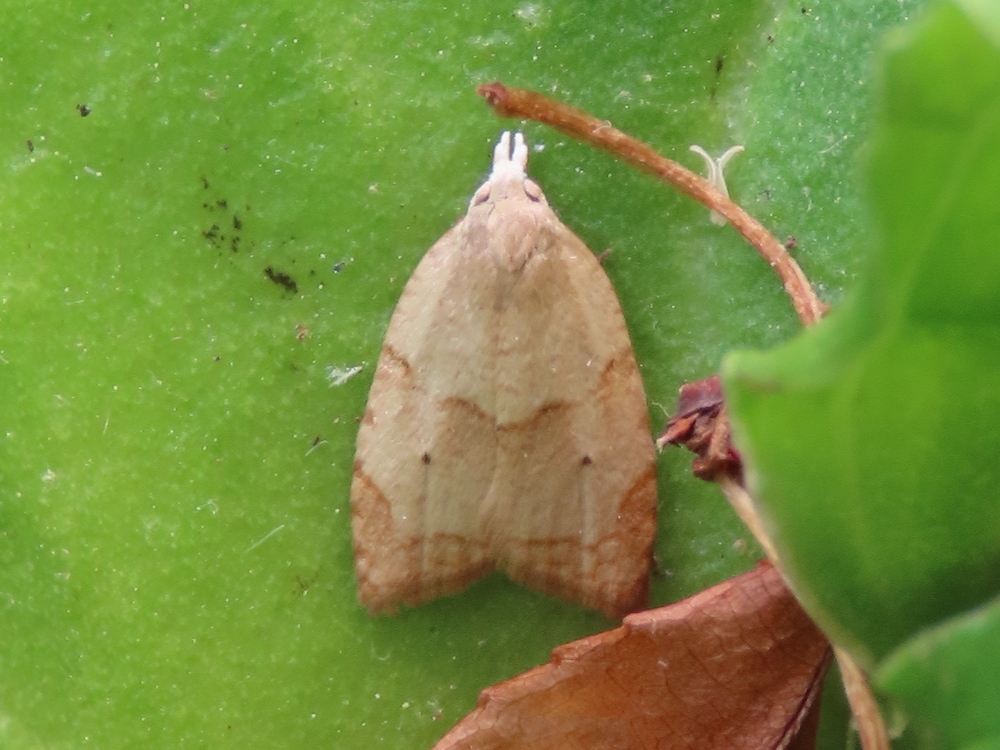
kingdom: Animalia
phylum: Arthropoda
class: Insecta
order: Lepidoptera
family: Tortricidae
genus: Coelostathma
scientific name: Coelostathma discopunctana
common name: Batman moth
